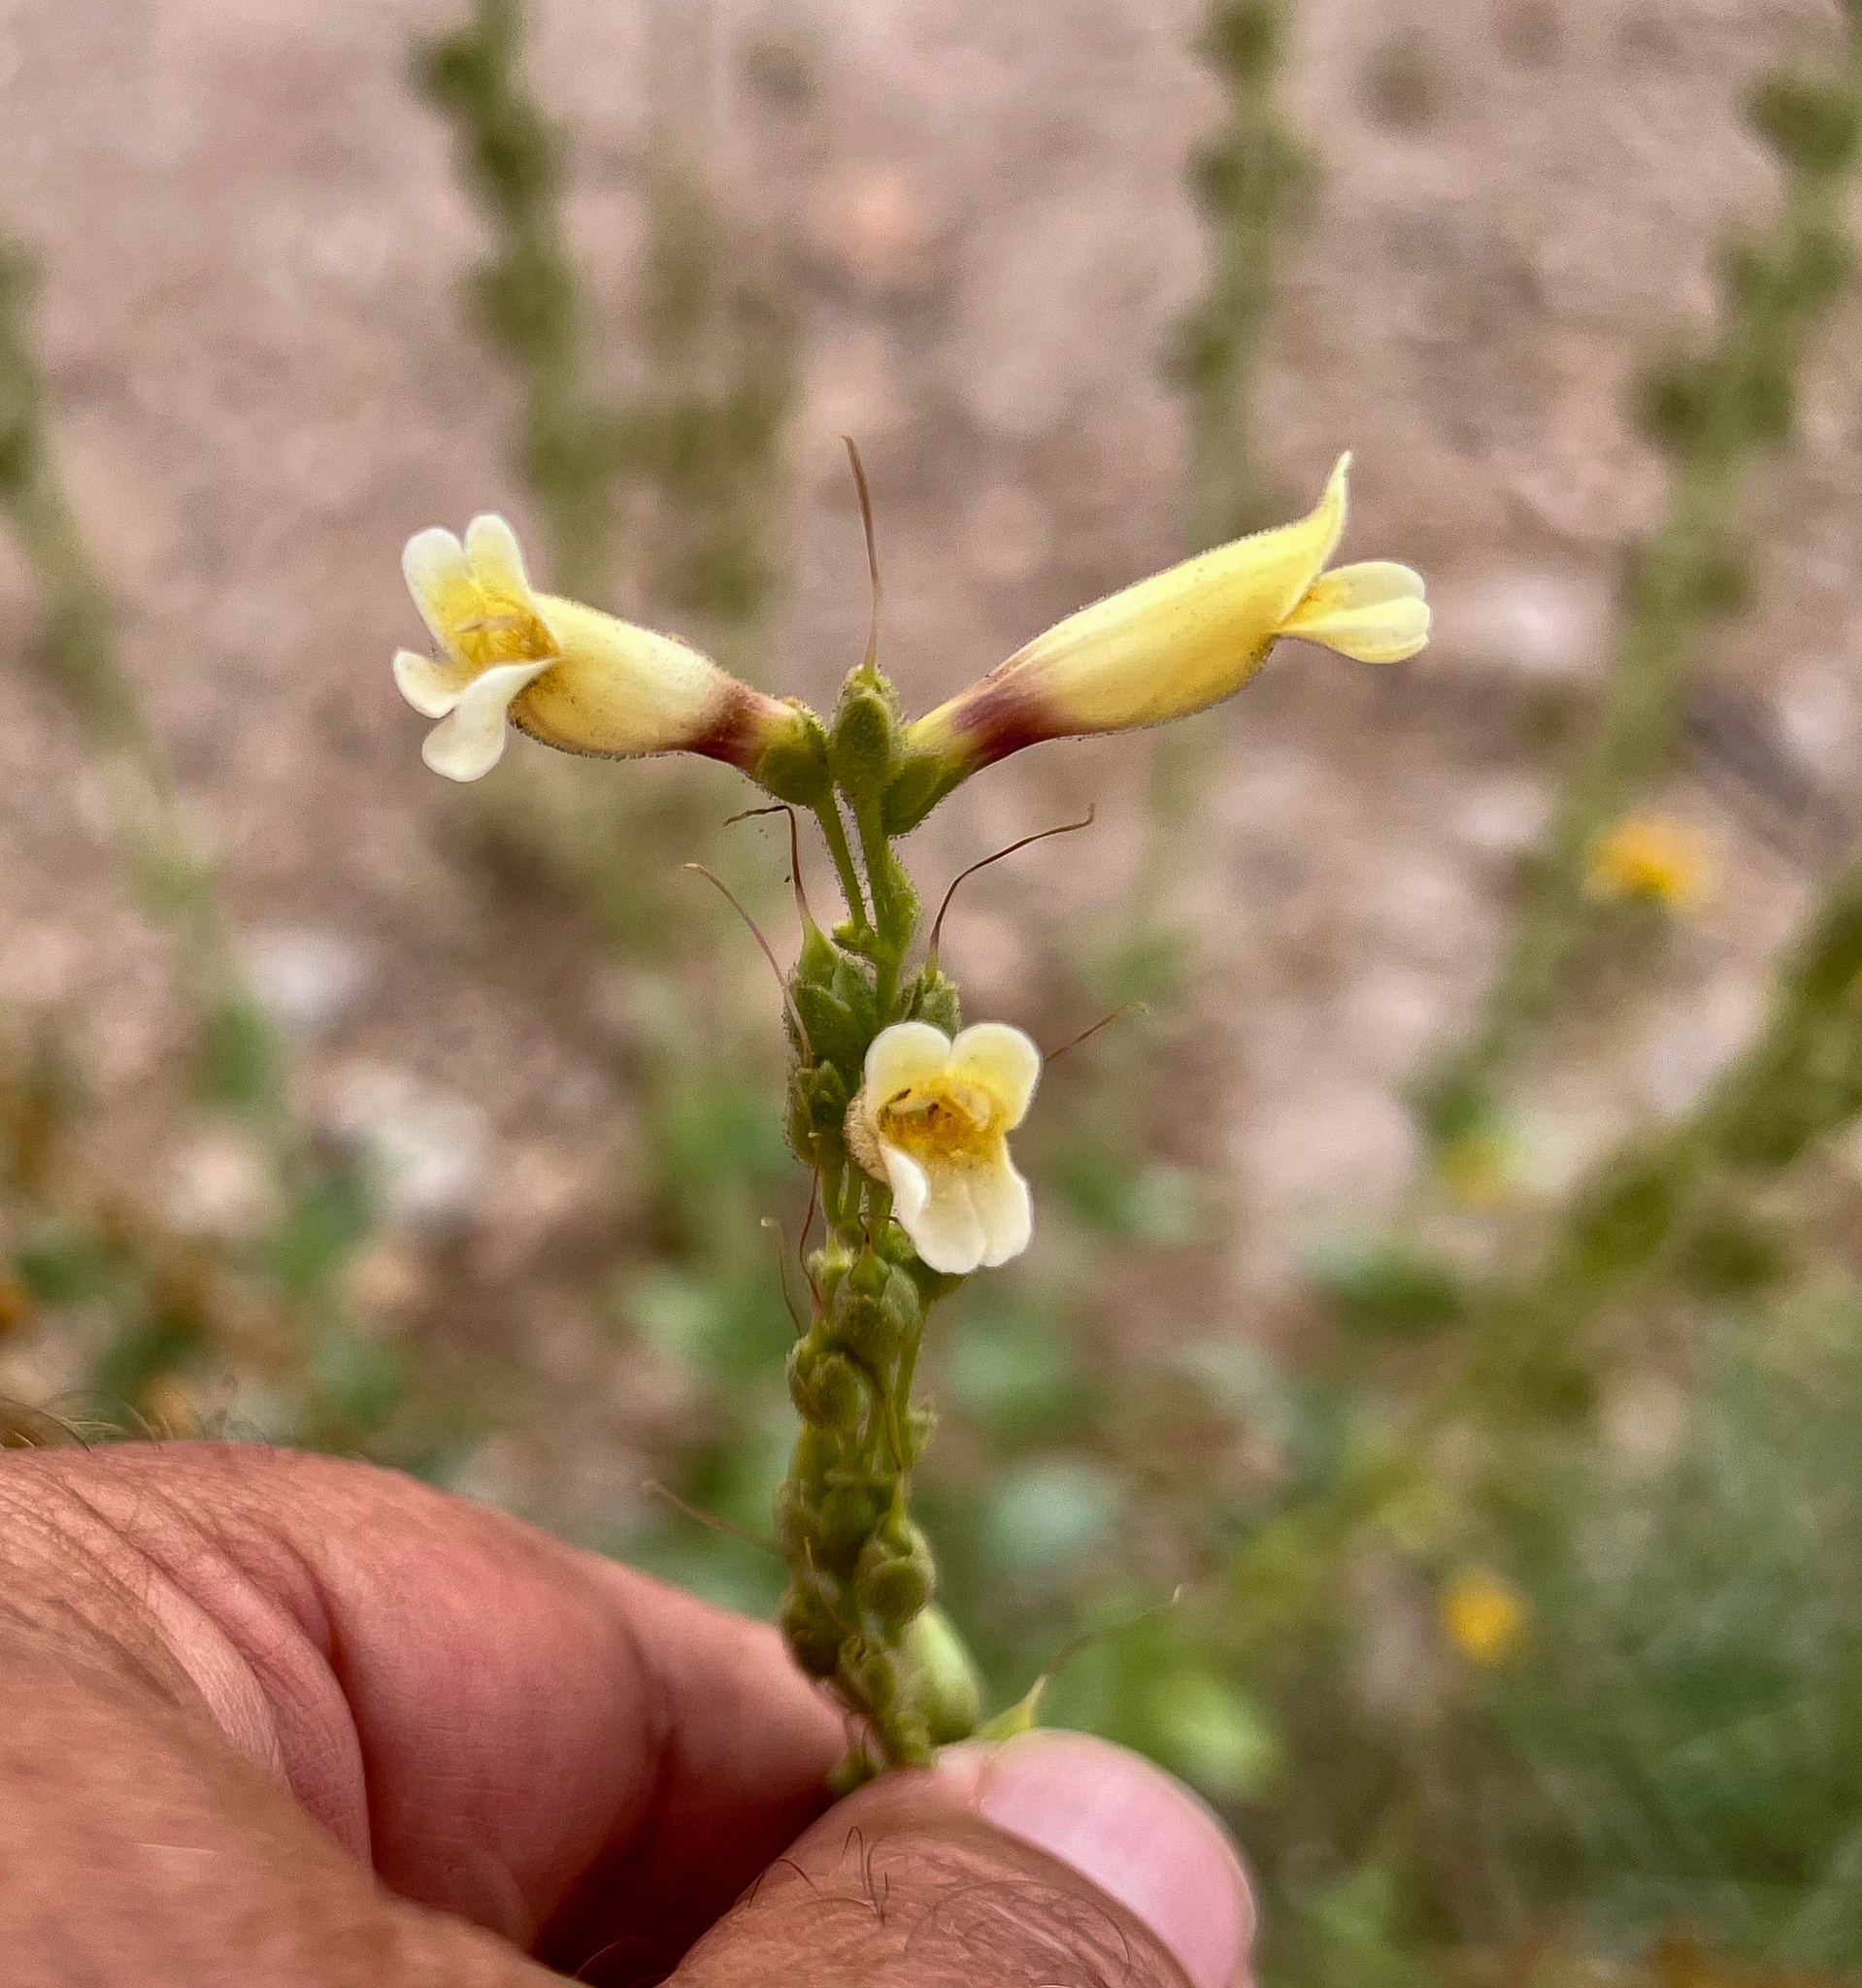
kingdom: Plantae
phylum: Tracheophyta
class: Magnoliopsida
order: Lamiales
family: Plantaginaceae
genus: Penstemon
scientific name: Penstemon bicolor
